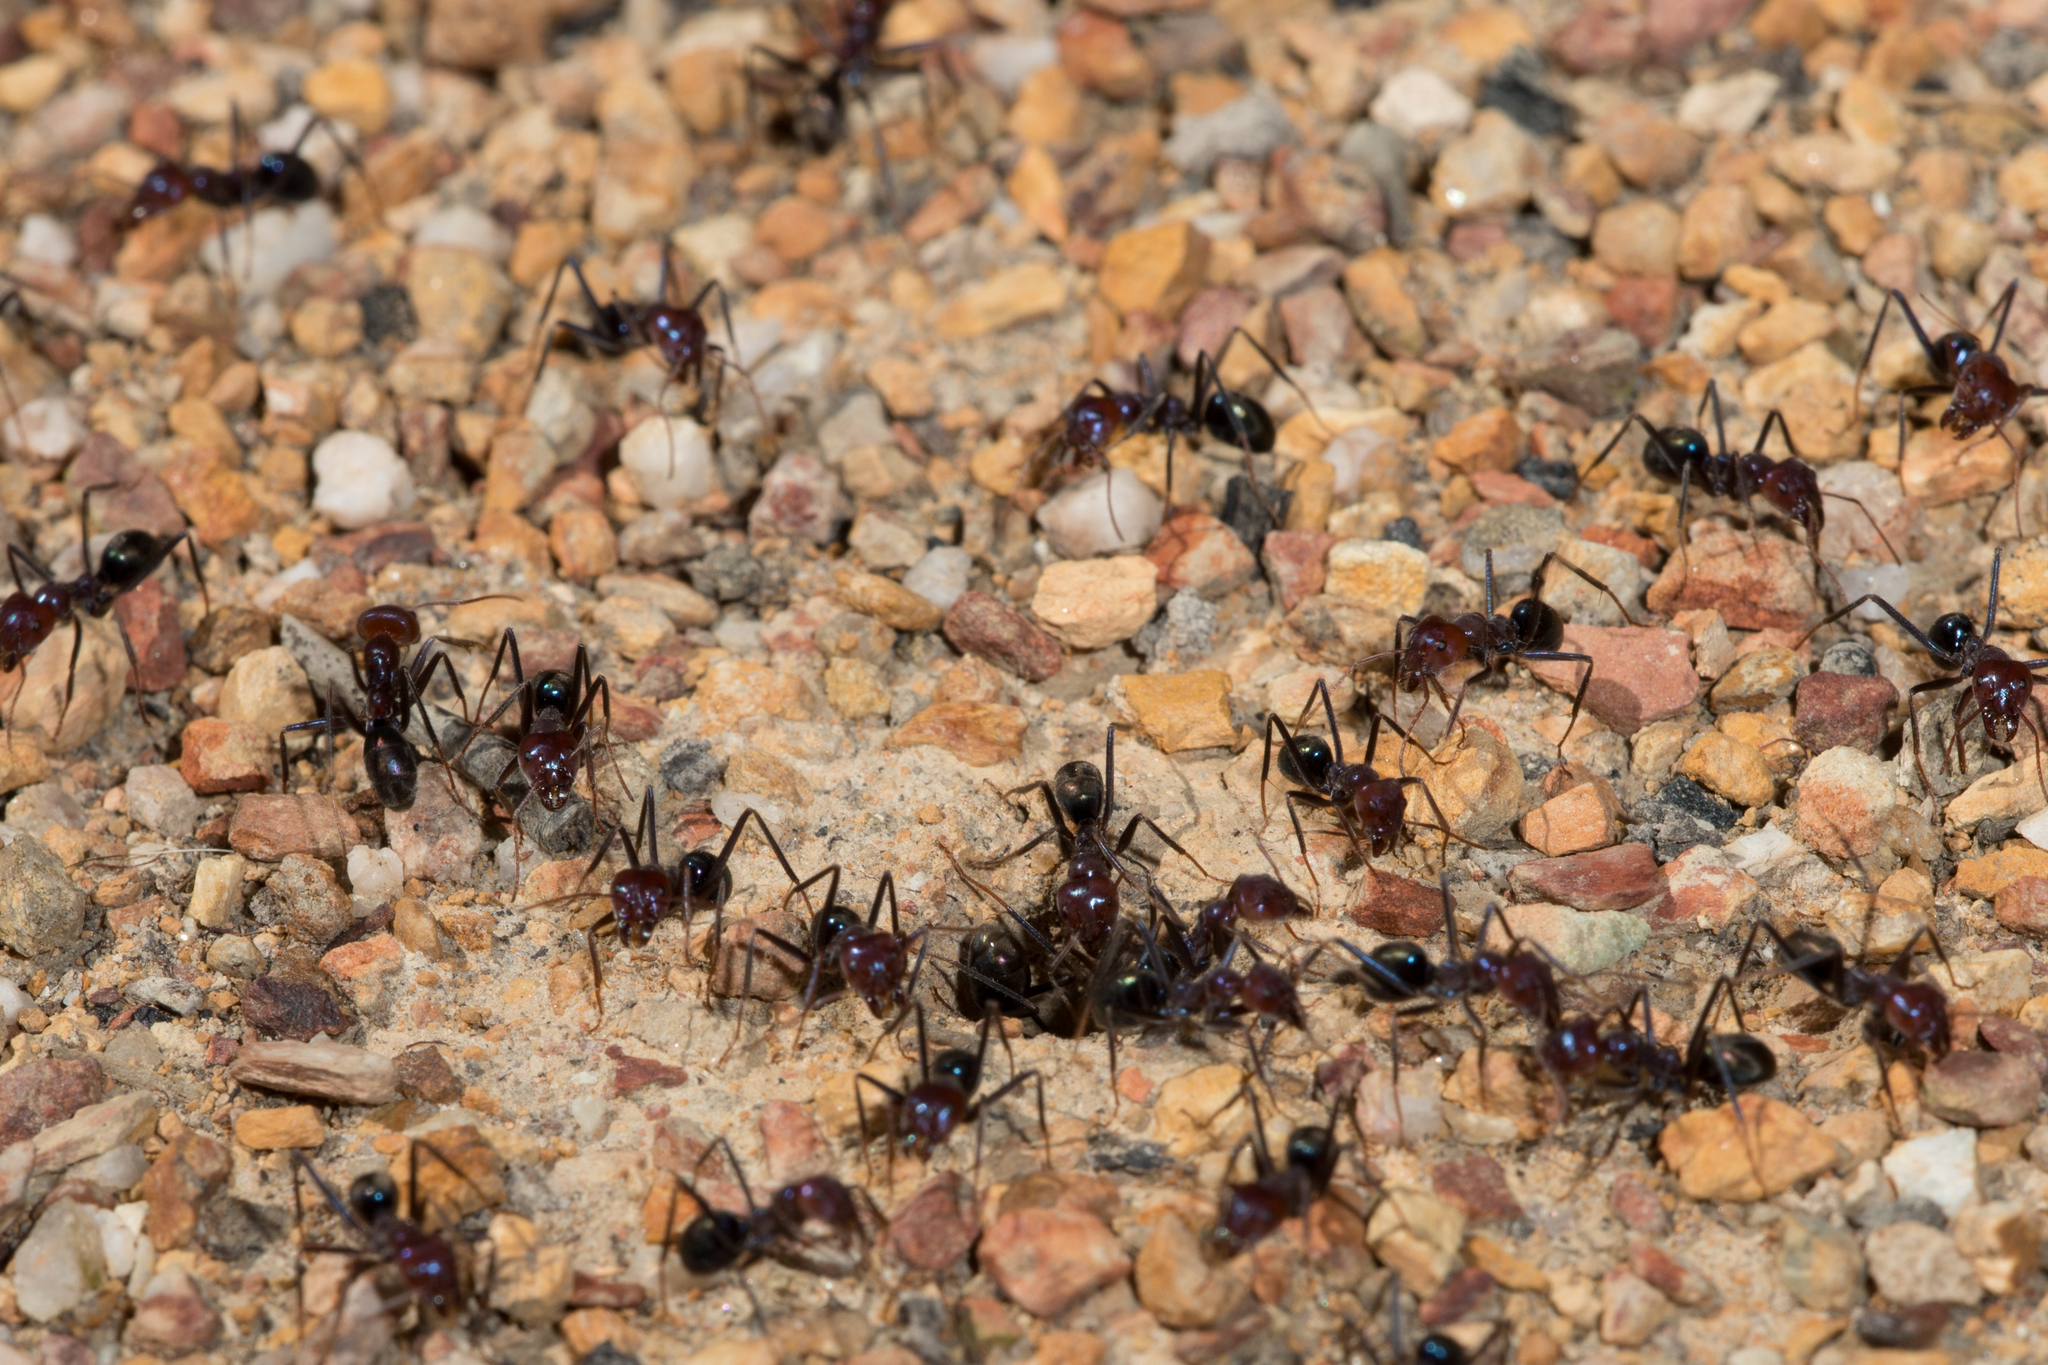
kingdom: Animalia
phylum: Arthropoda
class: Insecta
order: Hymenoptera
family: Formicidae
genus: Iridomyrmex
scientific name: Iridomyrmex purpureus
